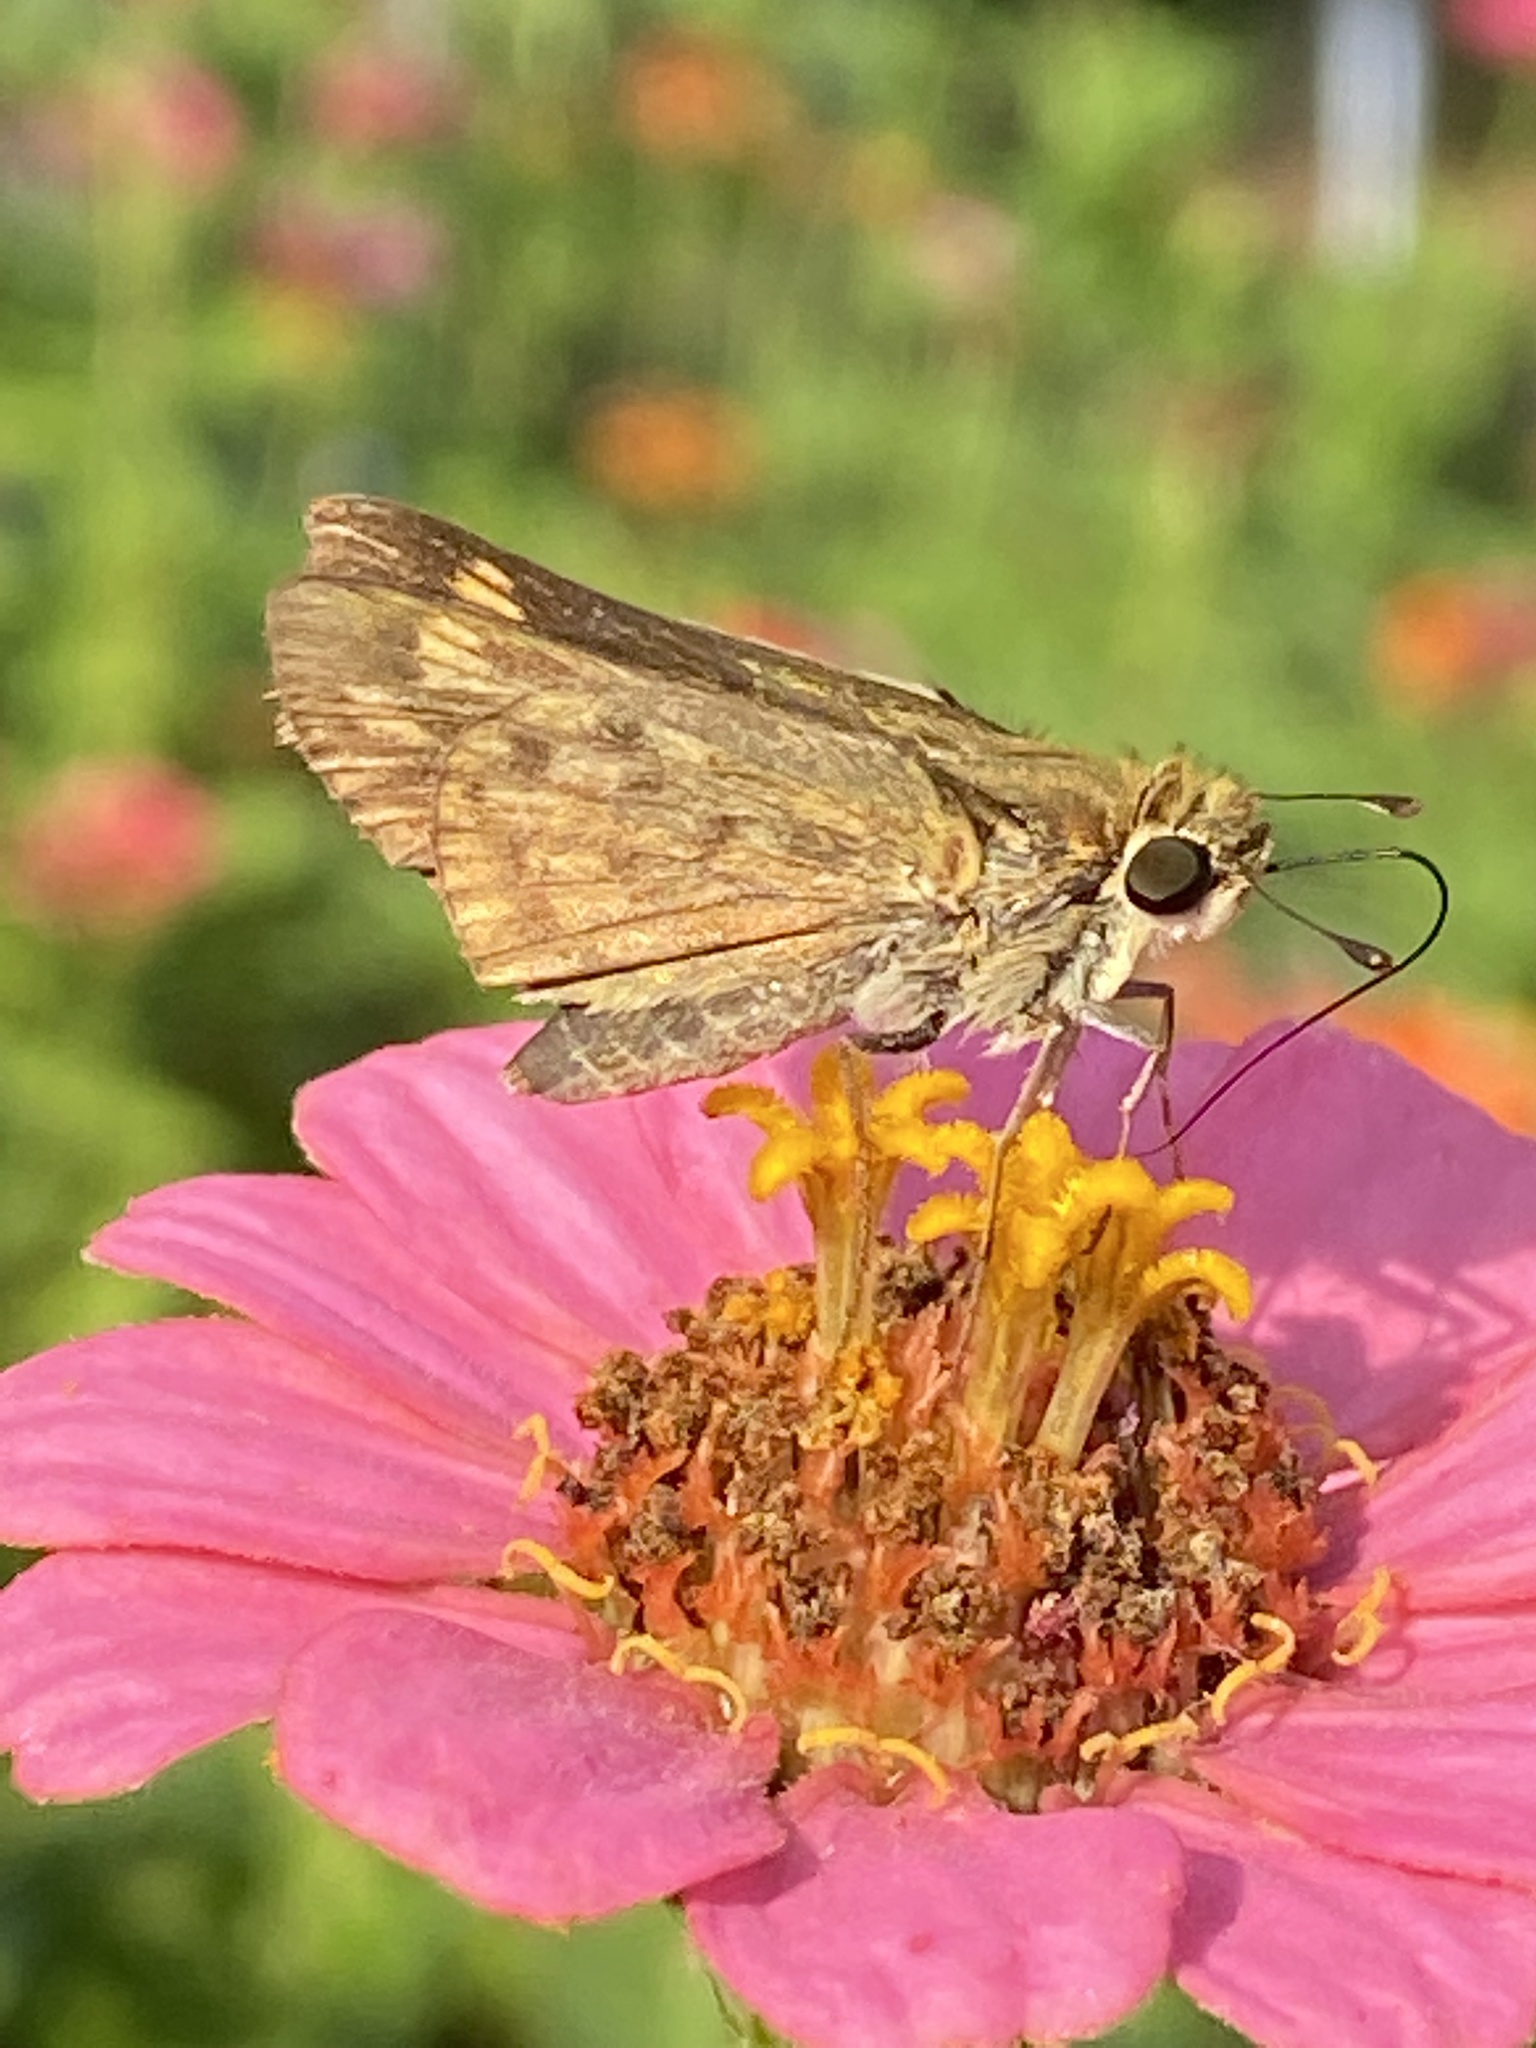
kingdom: Animalia
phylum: Arthropoda
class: Insecta
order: Lepidoptera
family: Hesperiidae
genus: Hylephila
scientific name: Hylephila phyleus
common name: Fiery skipper
